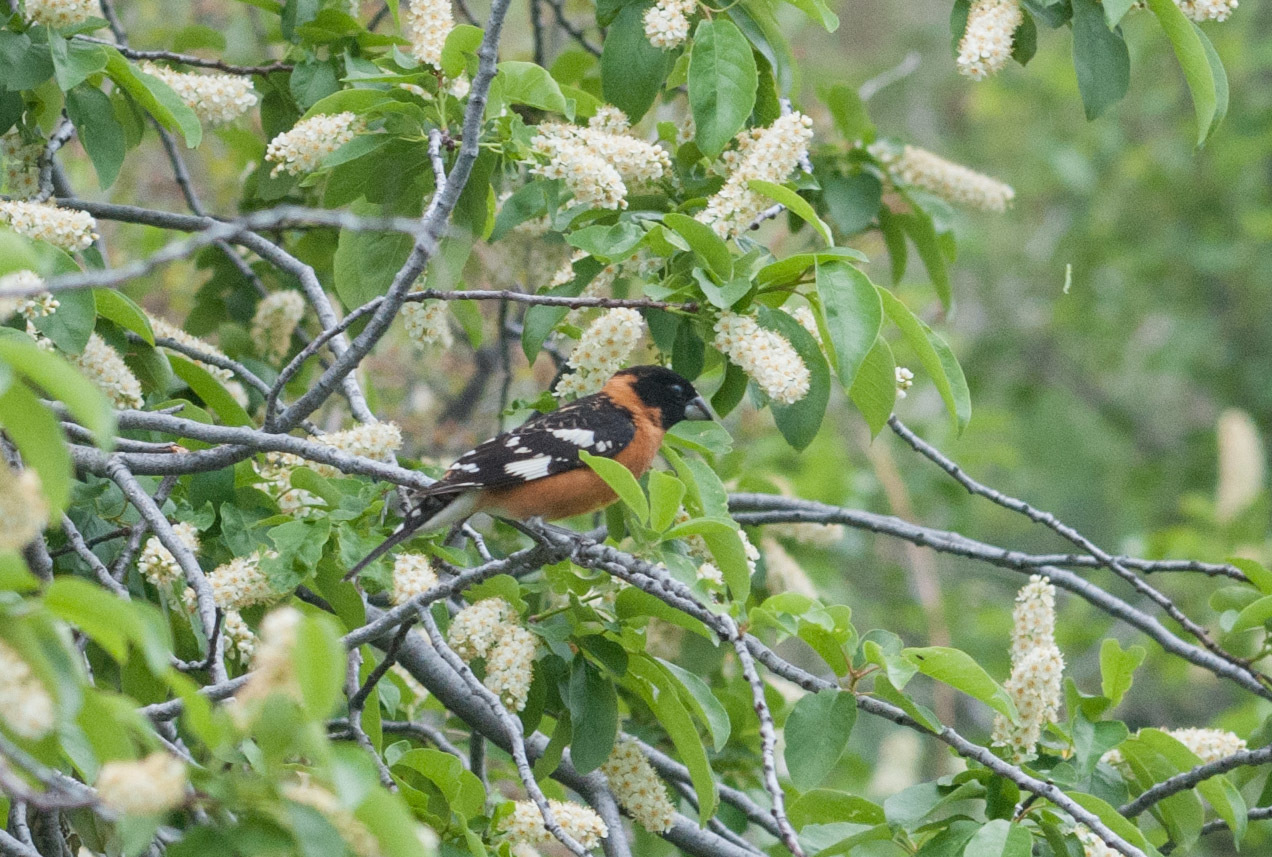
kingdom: Animalia
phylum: Chordata
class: Aves
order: Passeriformes
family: Cardinalidae
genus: Pheucticus
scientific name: Pheucticus melanocephalus
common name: Black-headed grosbeak
